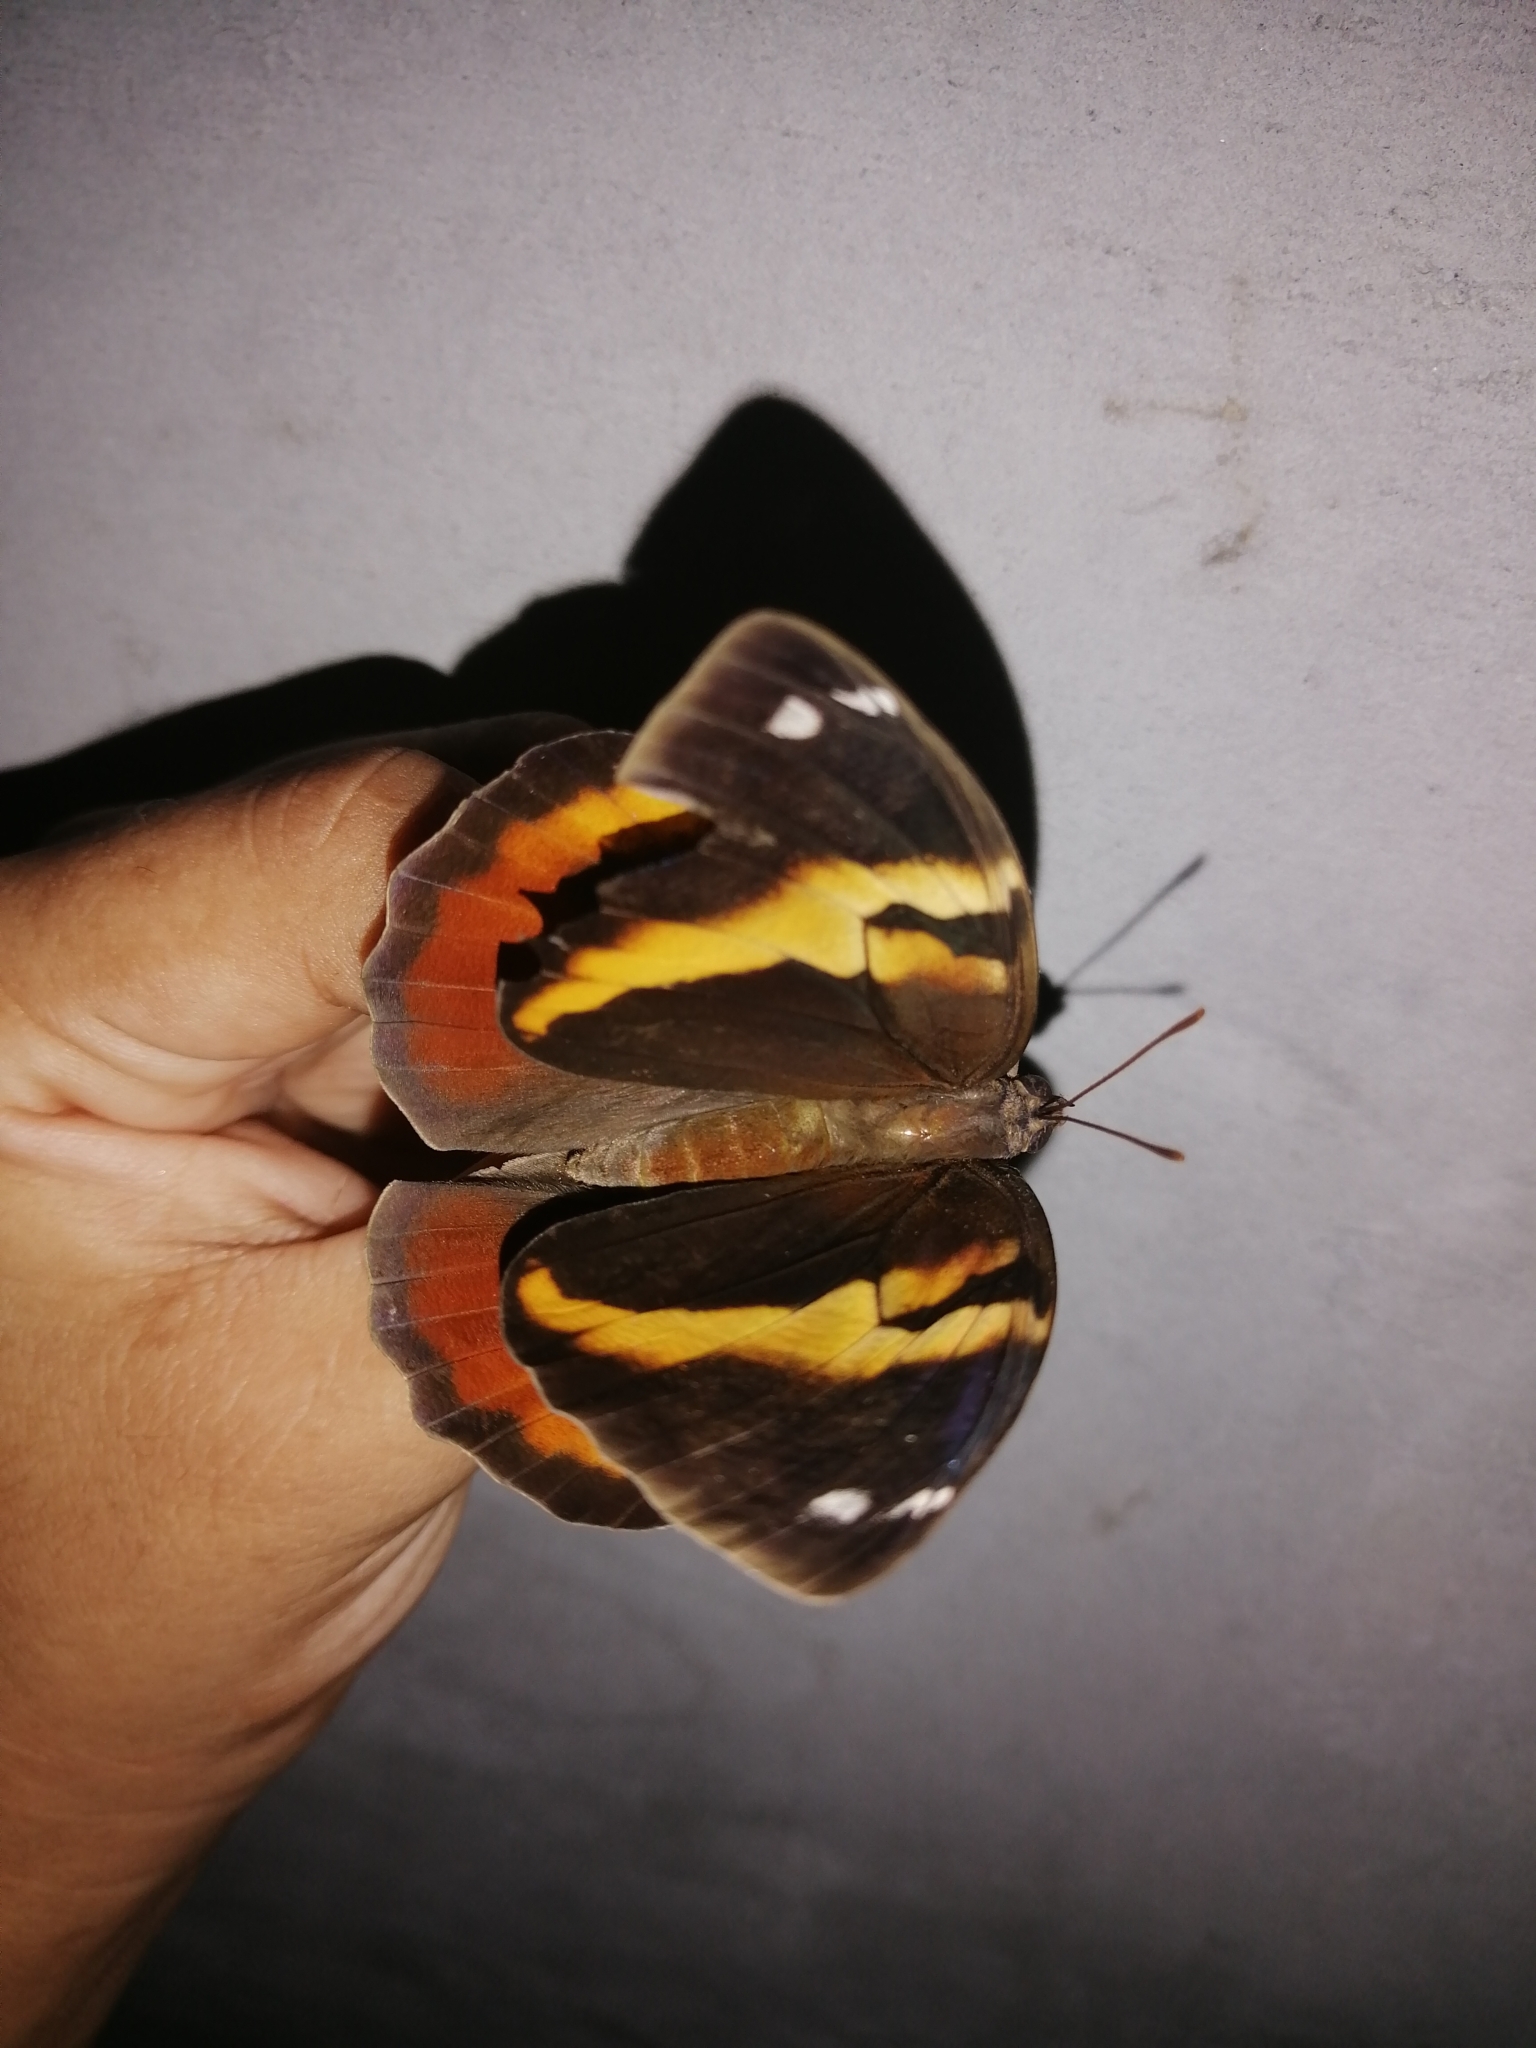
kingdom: Animalia
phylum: Arthropoda
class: Insecta
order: Lepidoptera
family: Nymphalidae
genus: Opsiphanes
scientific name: Opsiphanes cassina
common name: Split-banded owl-butterfly
